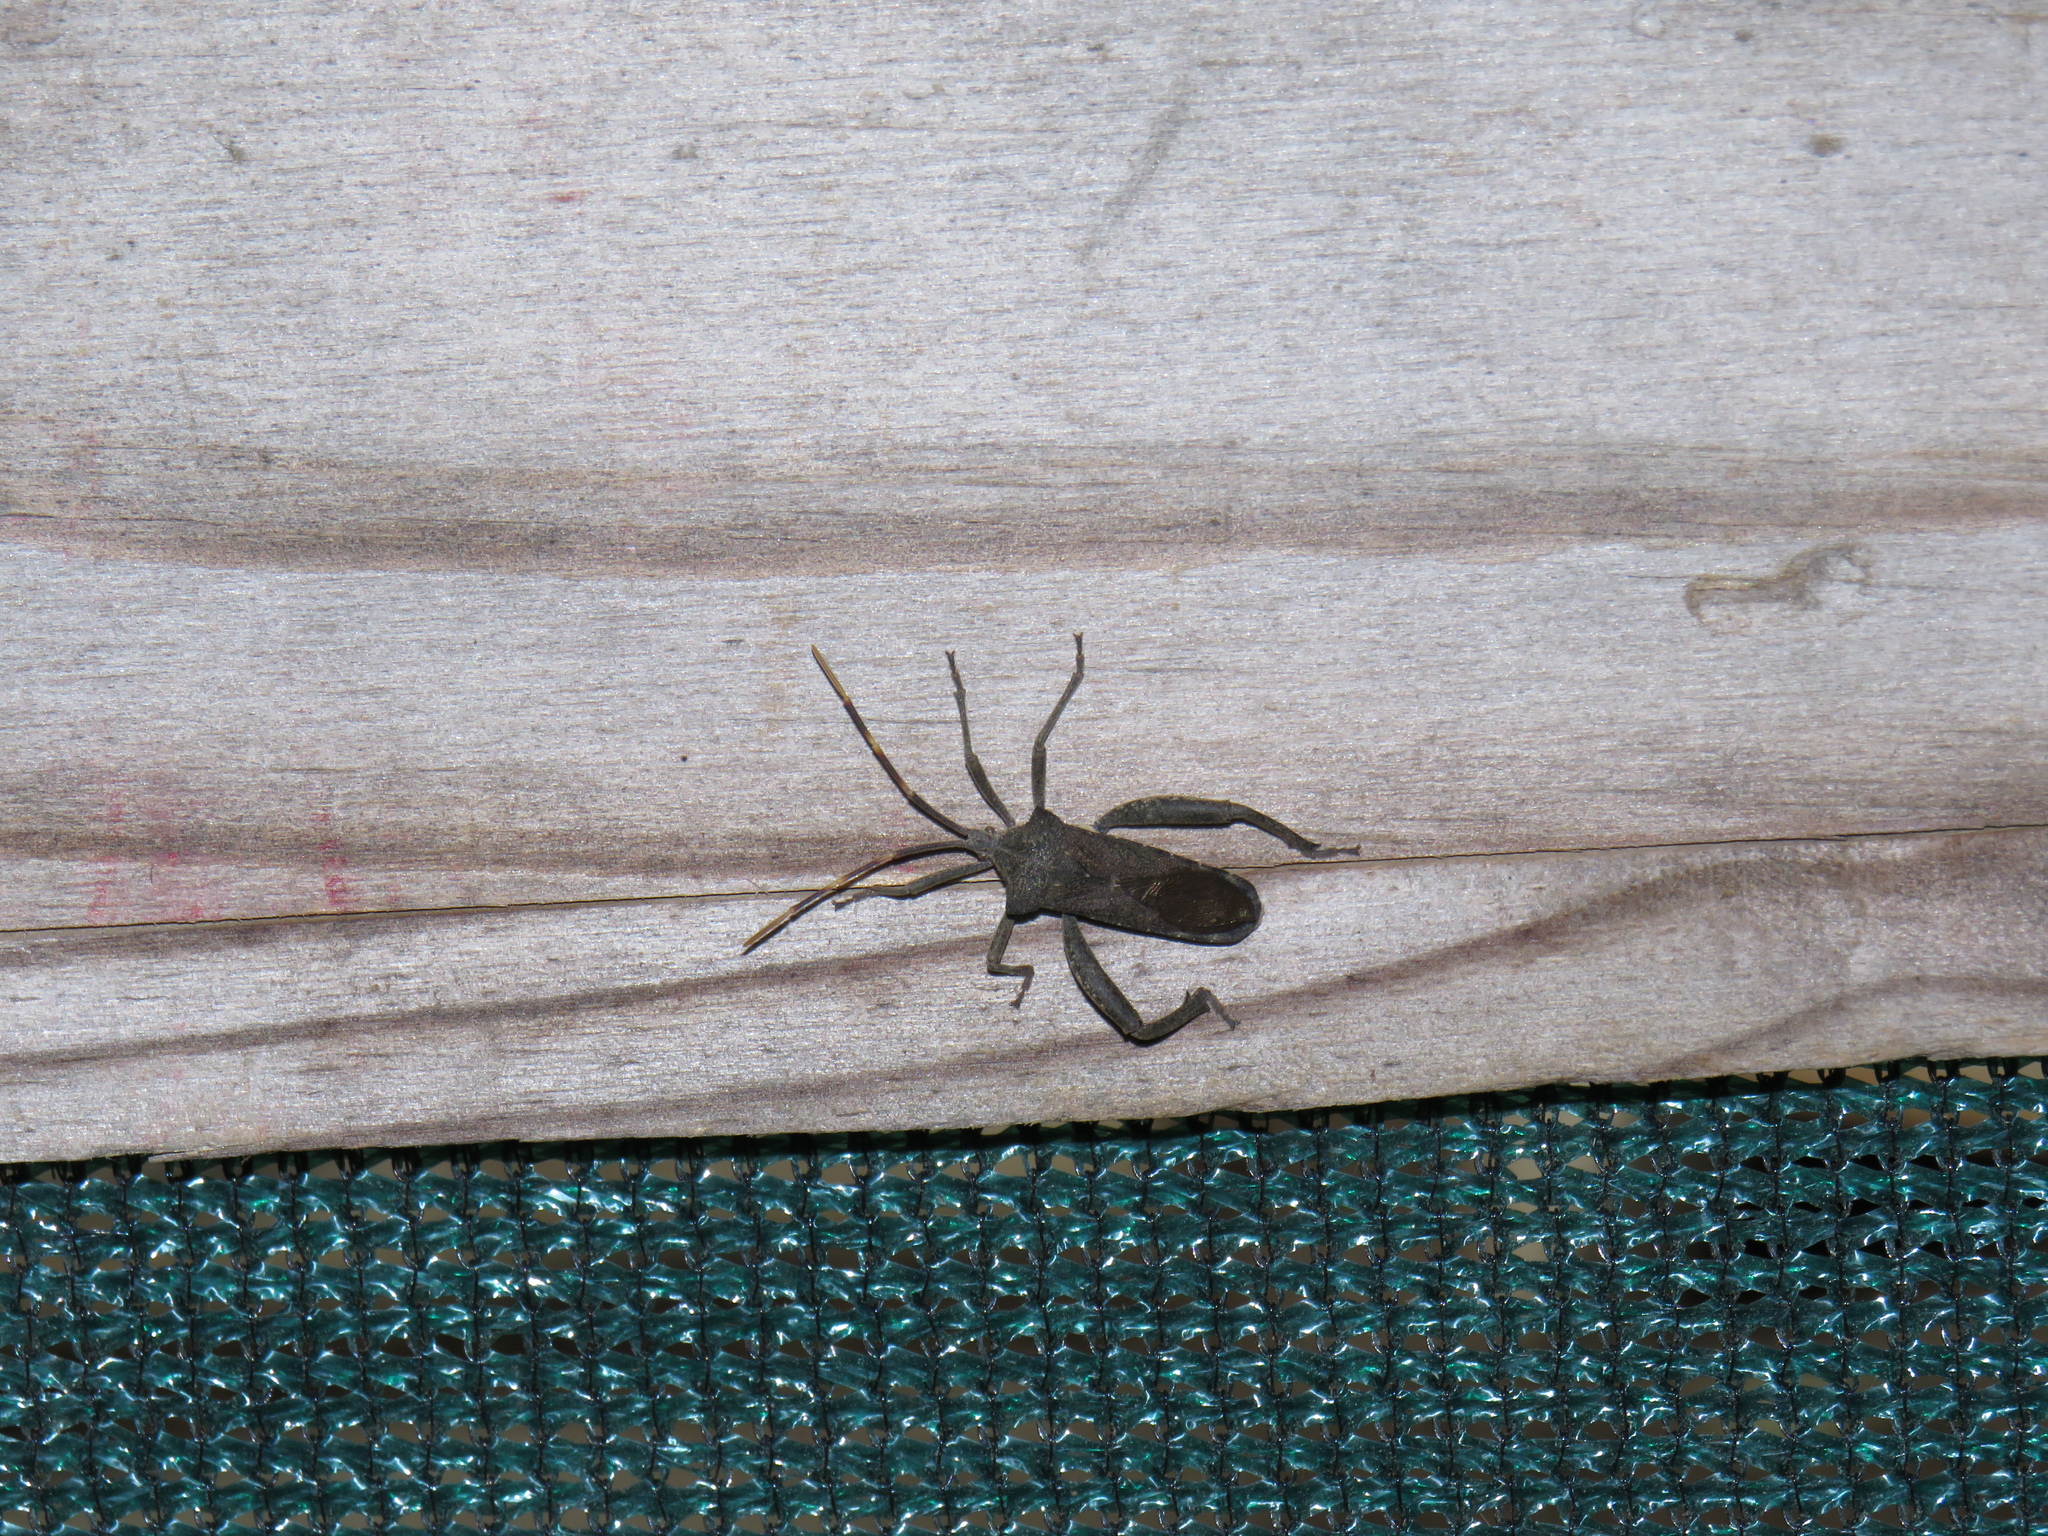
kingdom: Animalia
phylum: Arthropoda
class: Insecta
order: Hemiptera
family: Coreidae
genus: Elasmopoda
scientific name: Elasmopoda valga
